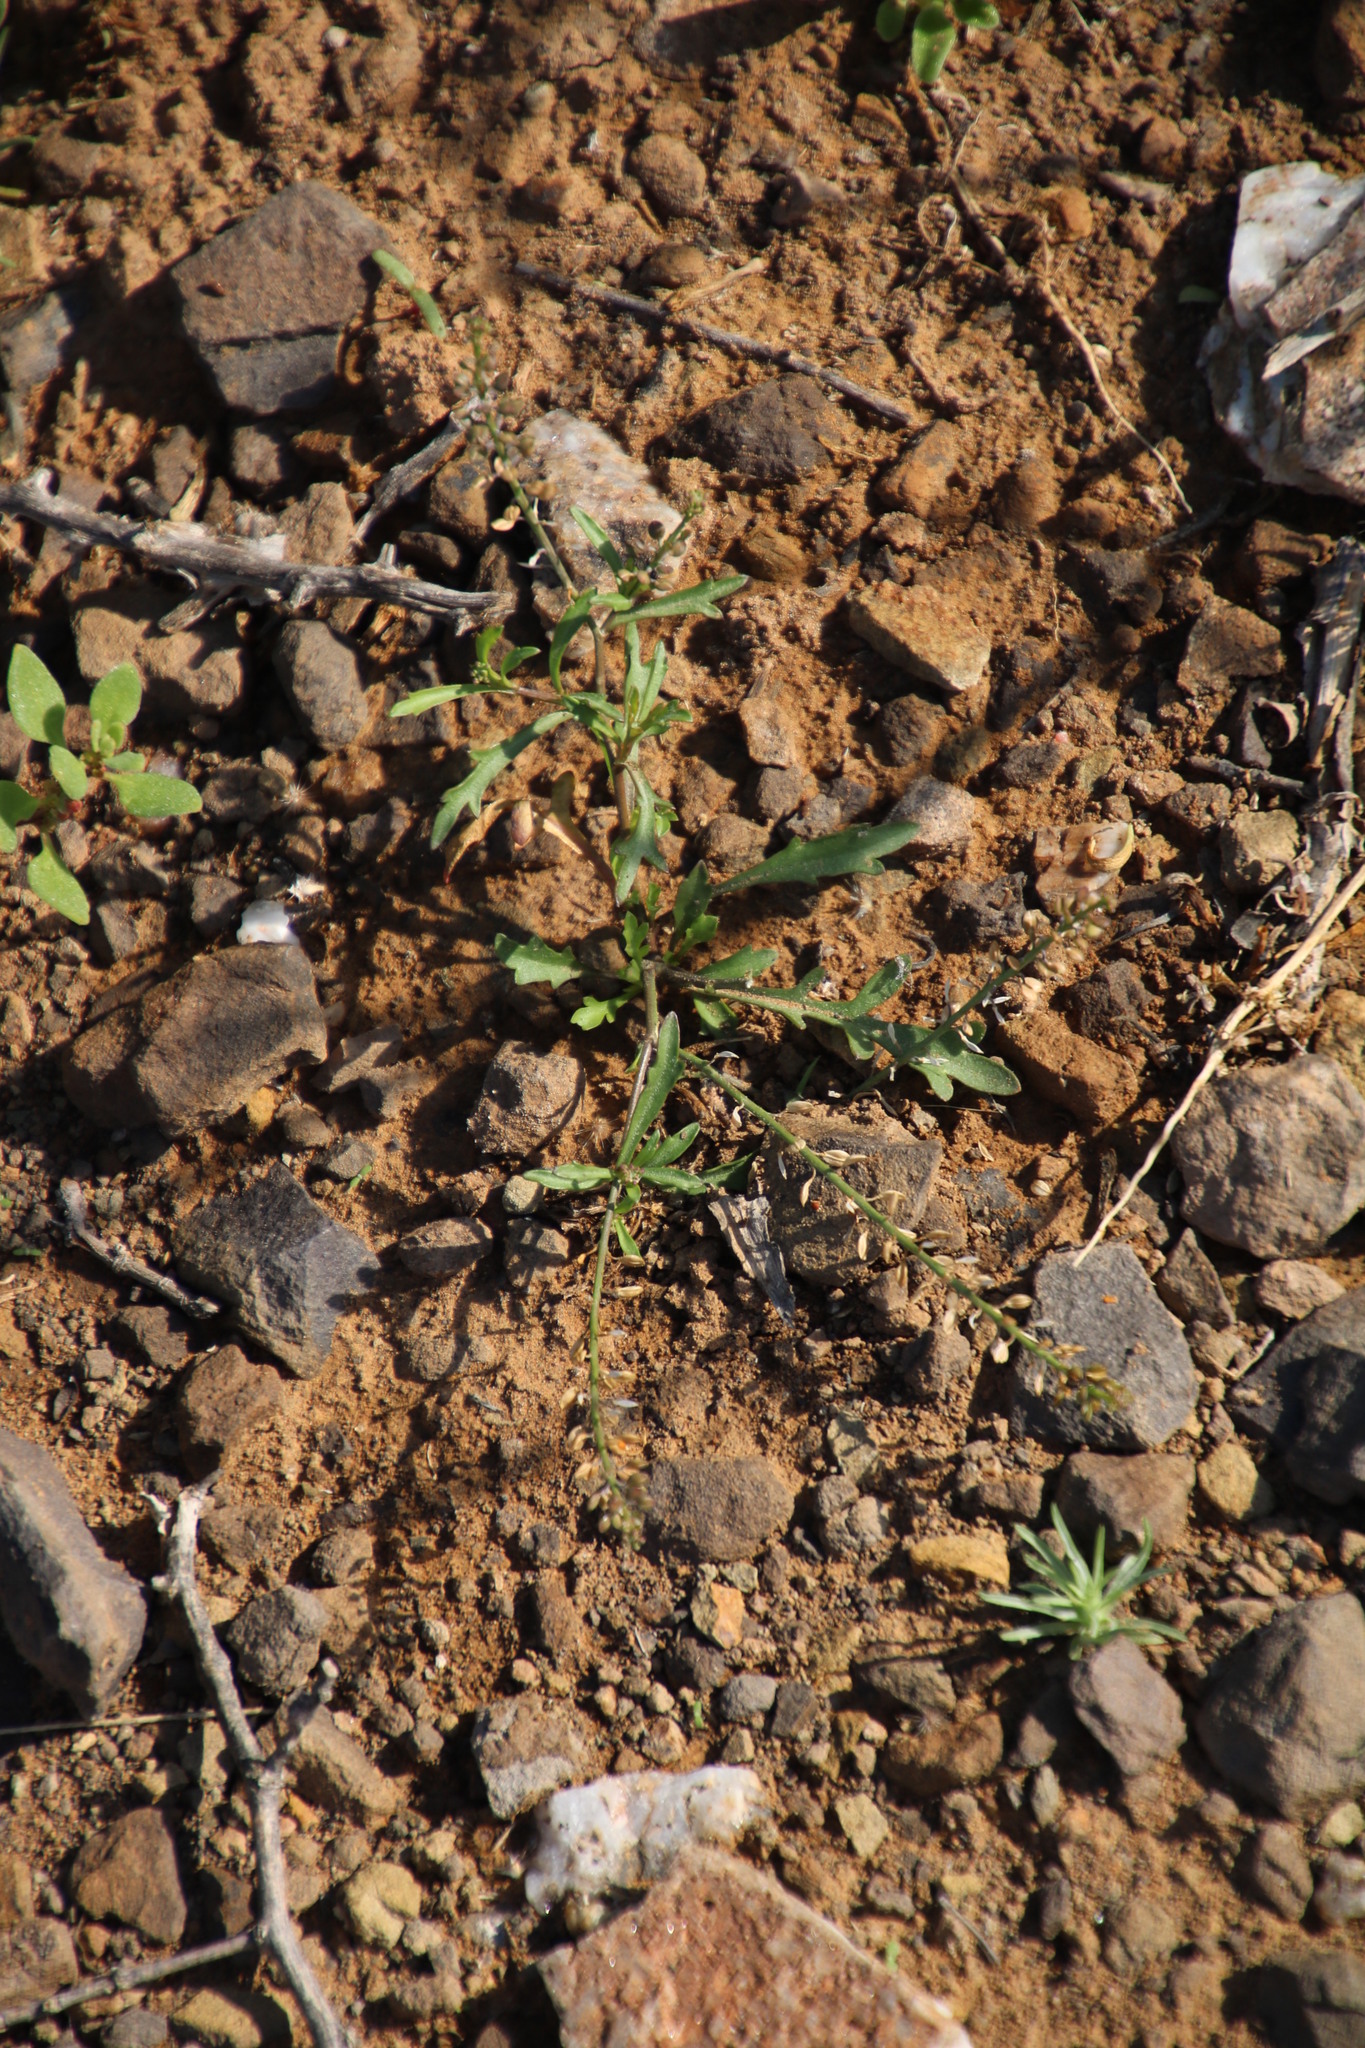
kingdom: Plantae
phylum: Tracheophyta
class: Magnoliopsida
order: Brassicales
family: Brassicaceae
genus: Lepidium
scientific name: Lepidium divaricatum
